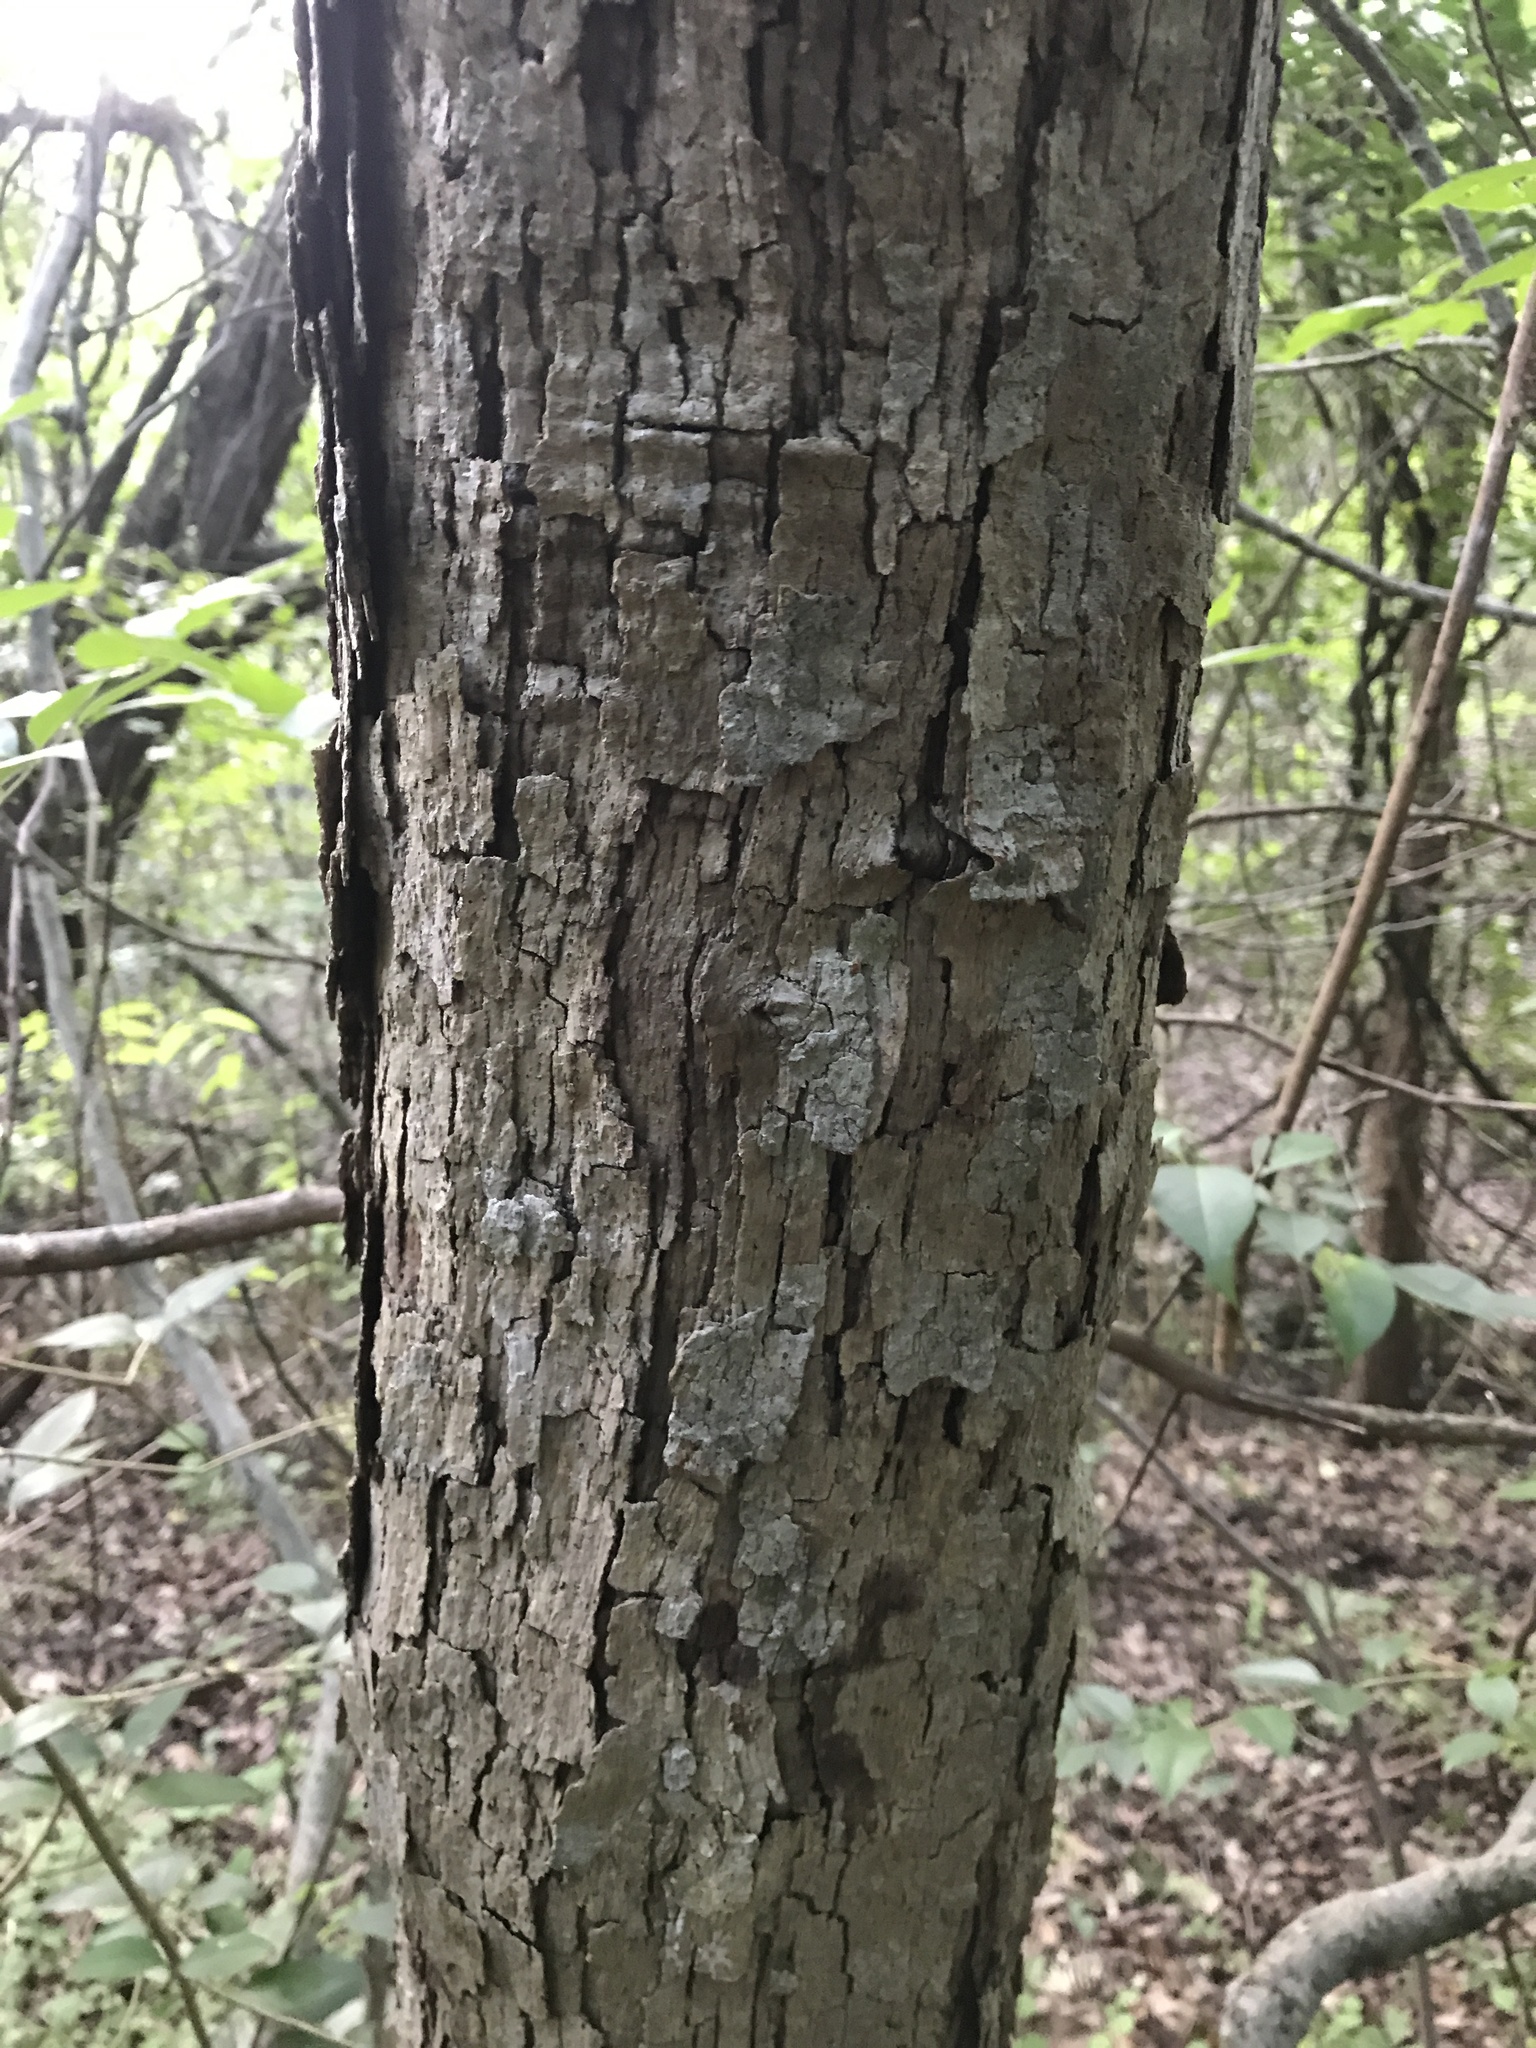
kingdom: Plantae
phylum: Tracheophyta
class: Magnoliopsida
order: Fagales
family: Fagaceae
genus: Quercus
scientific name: Quercus sinuata
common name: Durand oak
